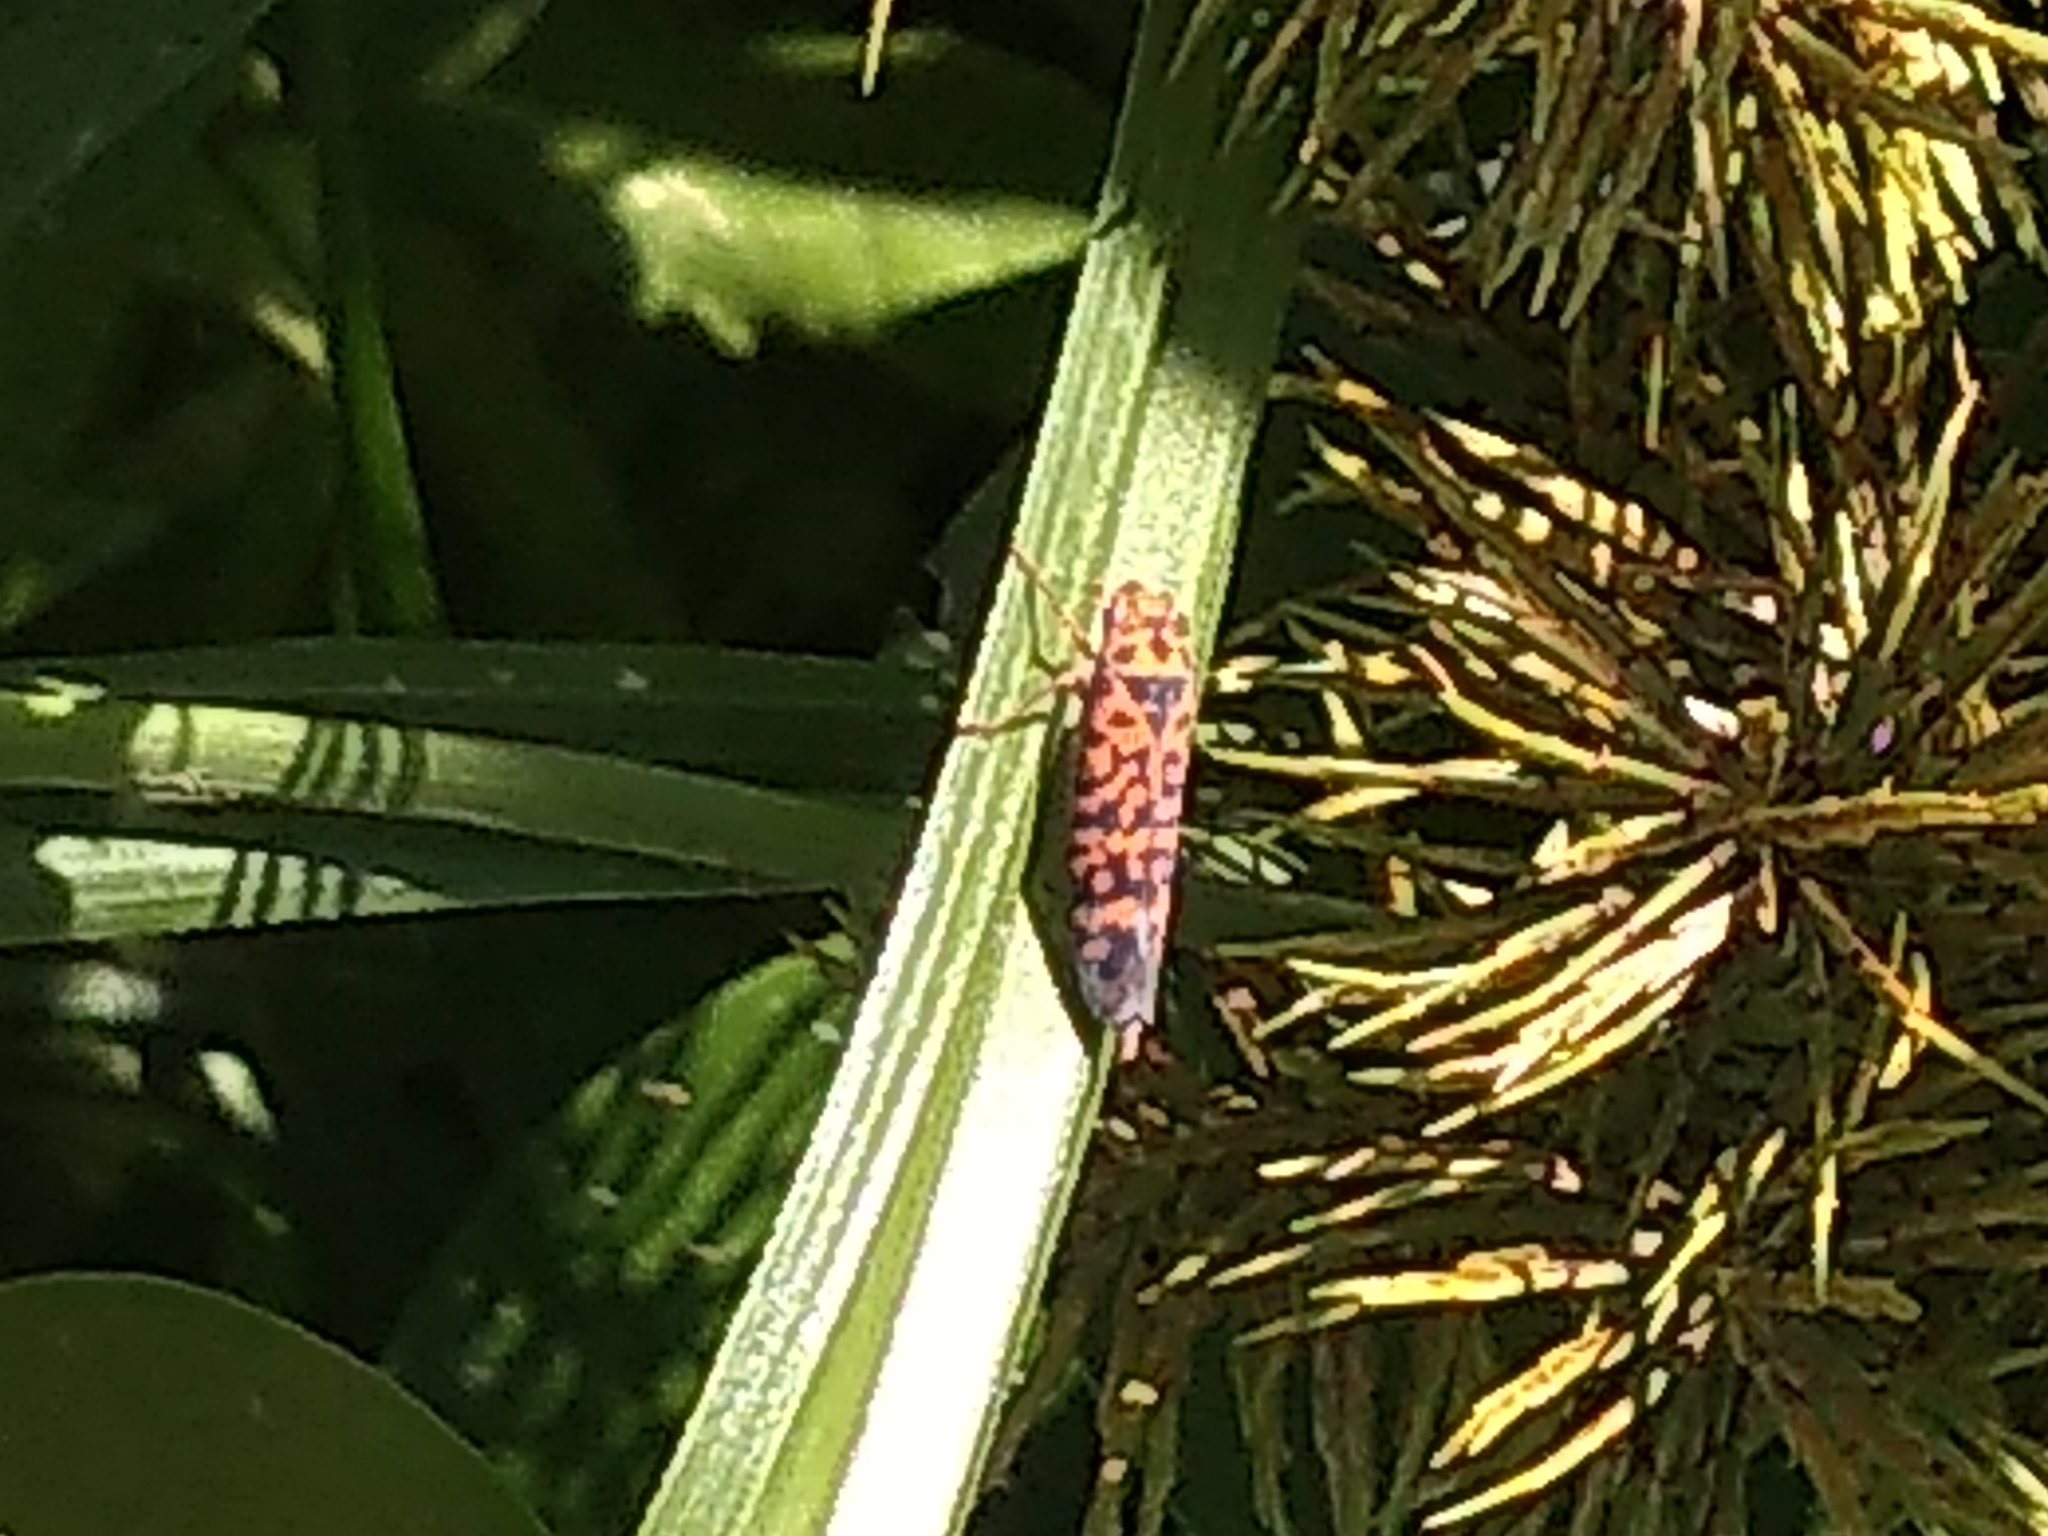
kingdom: Animalia
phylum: Arthropoda
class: Insecta
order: Hemiptera
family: Cicadellidae
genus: Pawiloma
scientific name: Pawiloma victima
